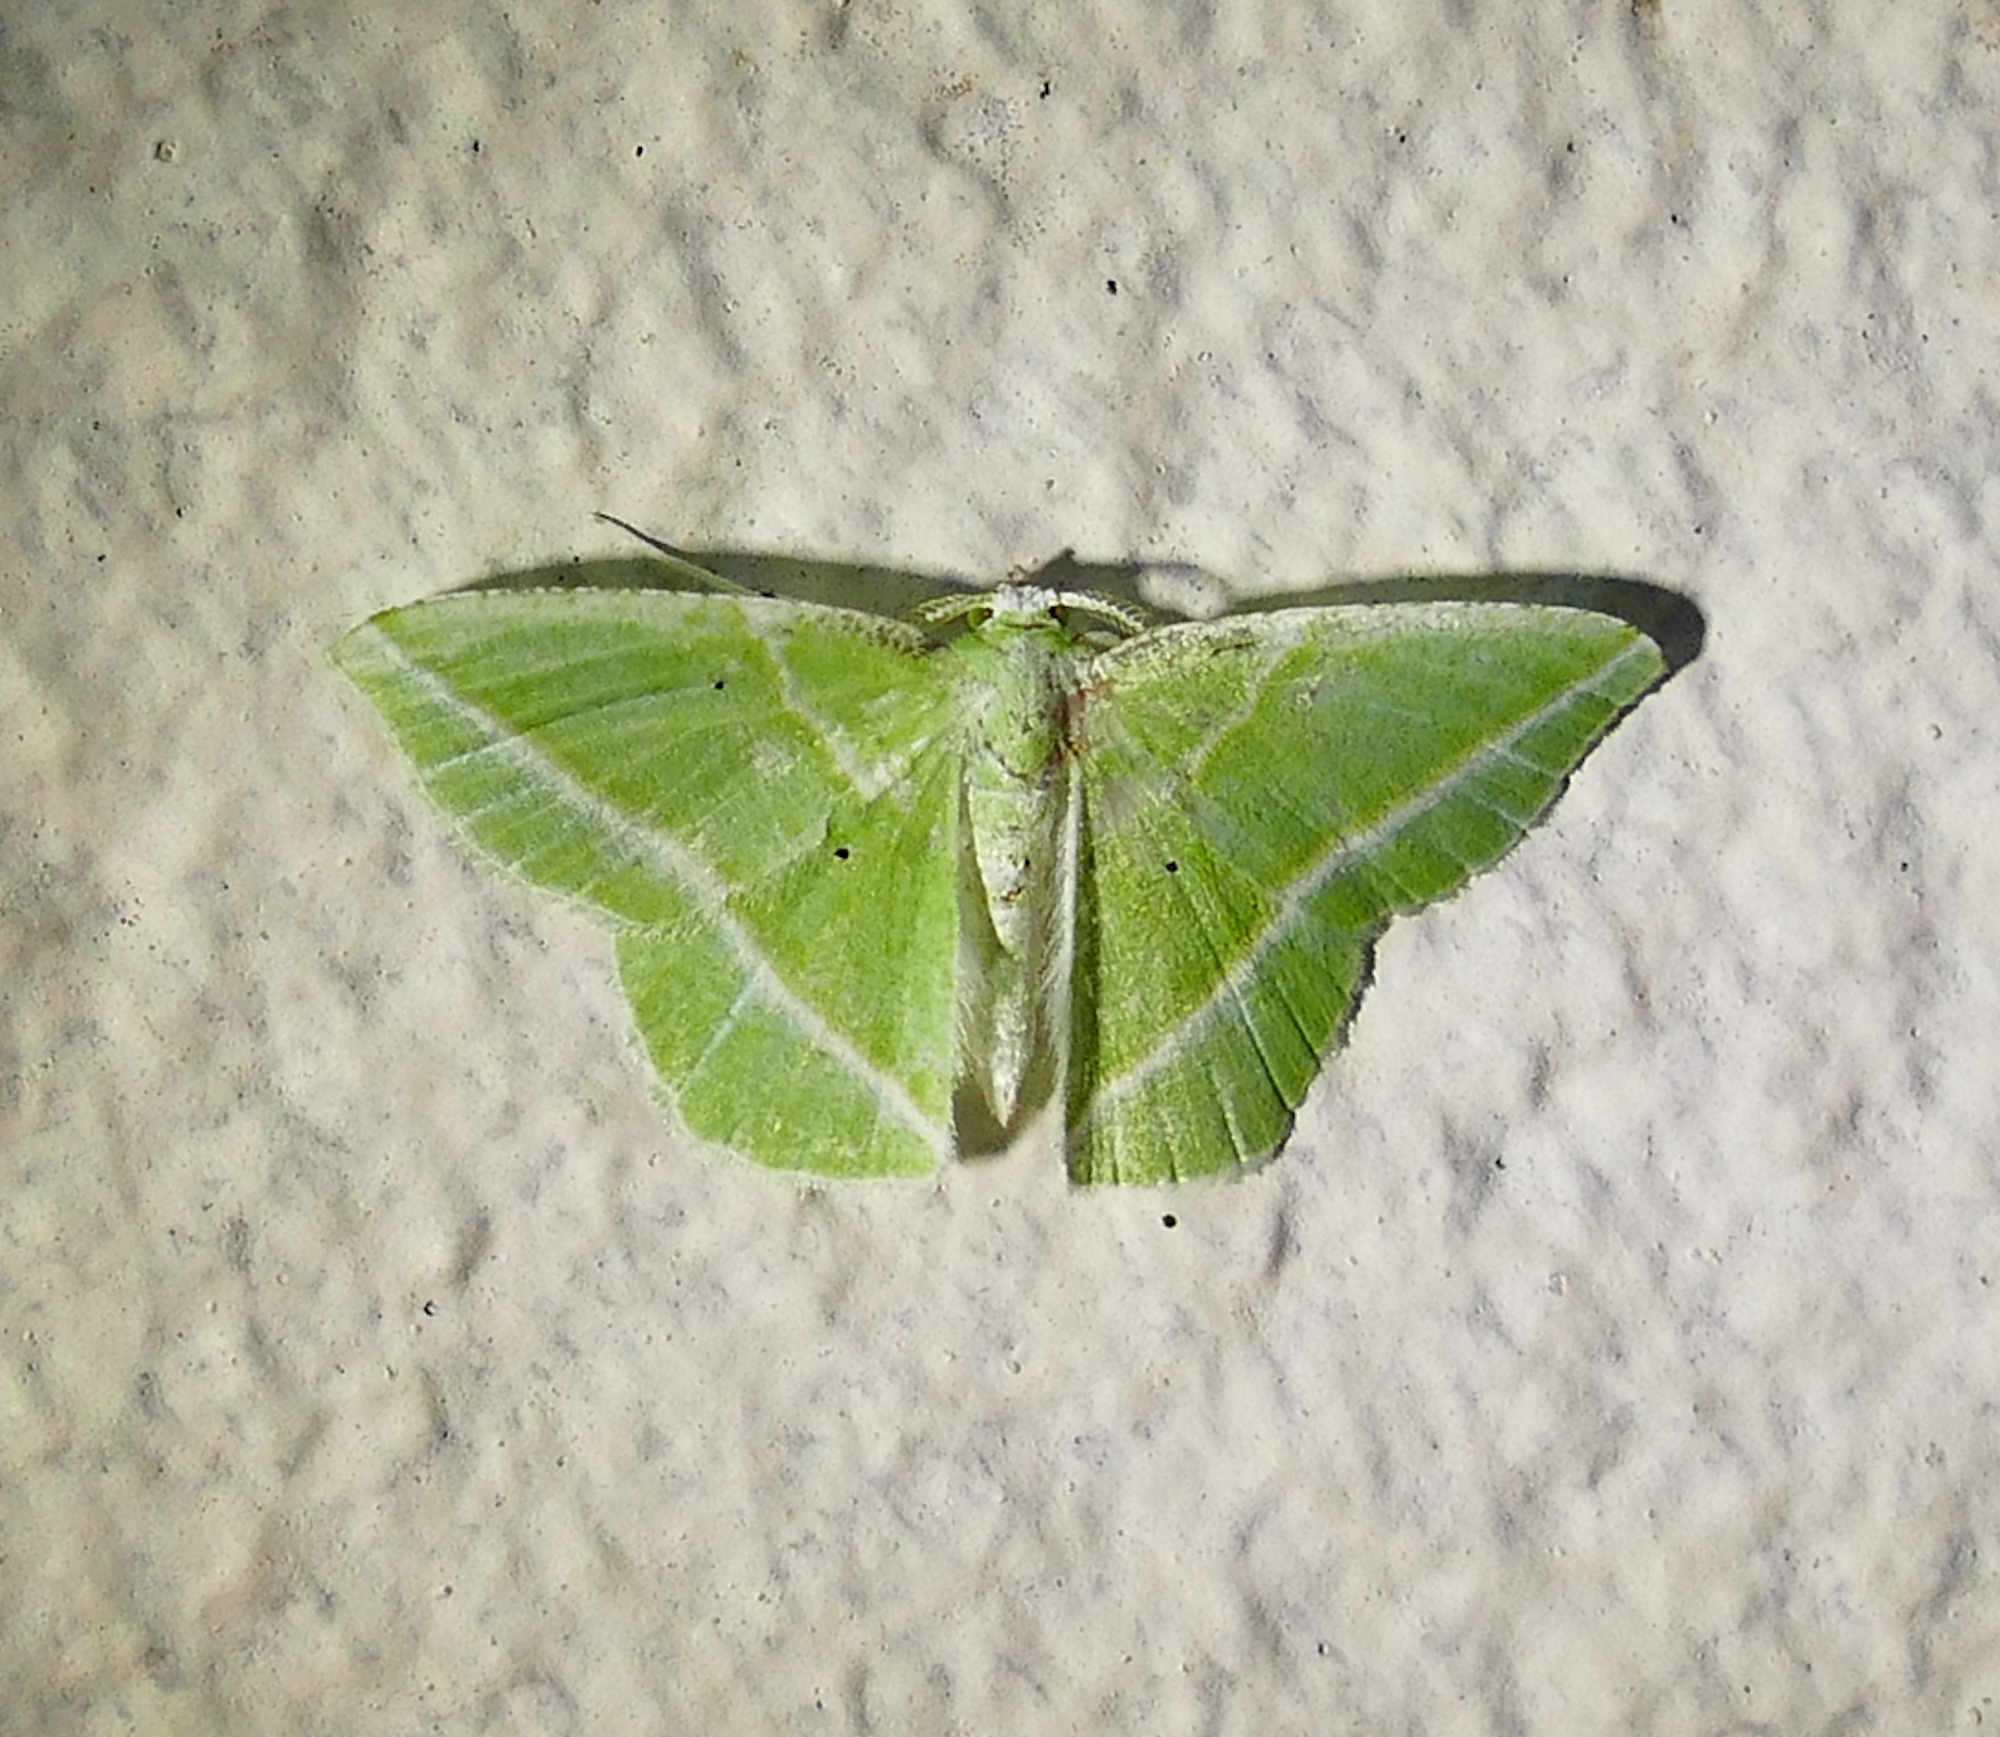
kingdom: Animalia
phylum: Arthropoda
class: Insecta
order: Lepidoptera
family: Geometridae
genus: Dichorda
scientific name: Dichorda iridaria
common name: Showy emerald
